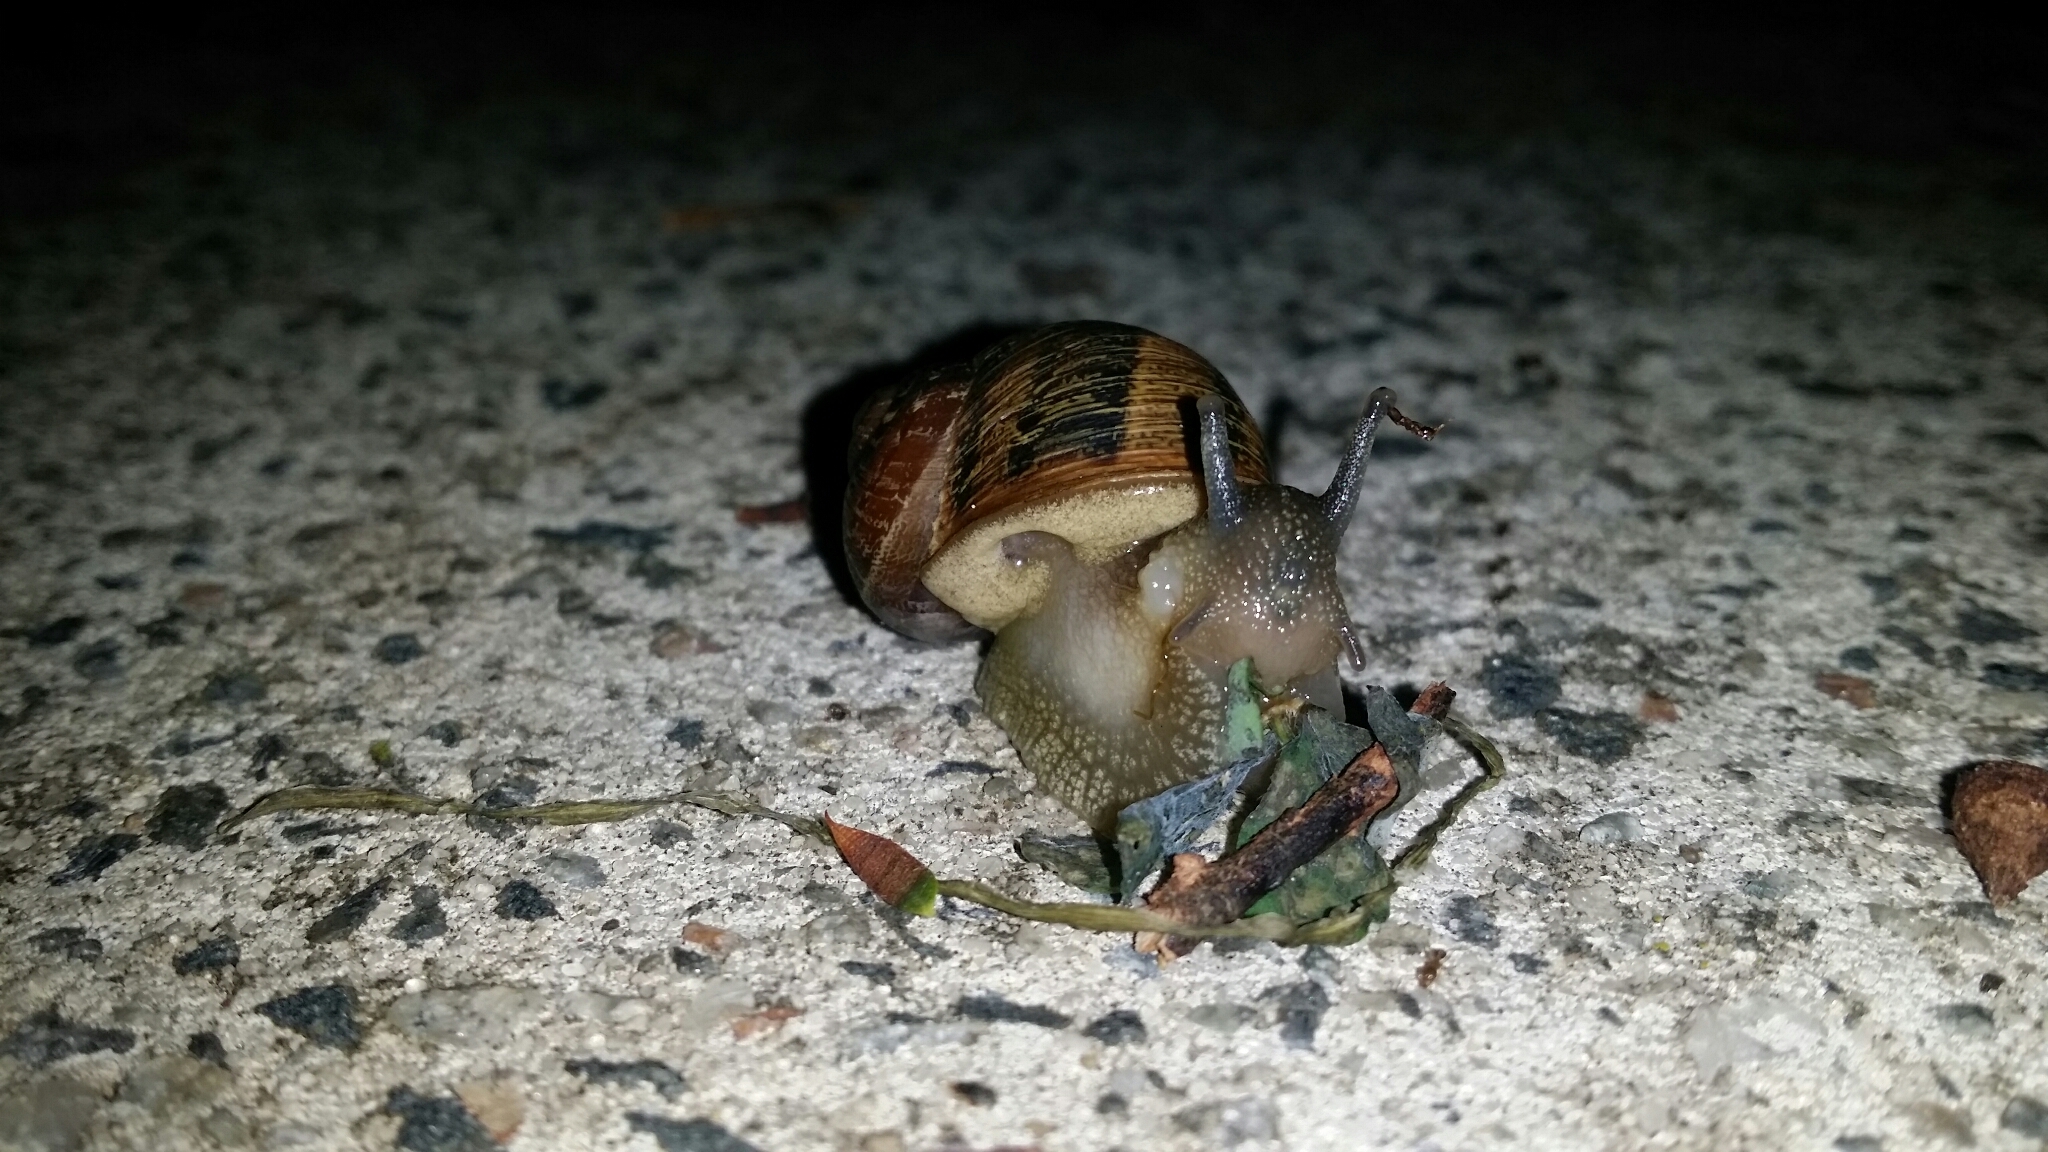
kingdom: Animalia
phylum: Mollusca
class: Gastropoda
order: Stylommatophora
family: Helicidae
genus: Cornu
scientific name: Cornu aspersum
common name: Brown garden snail
